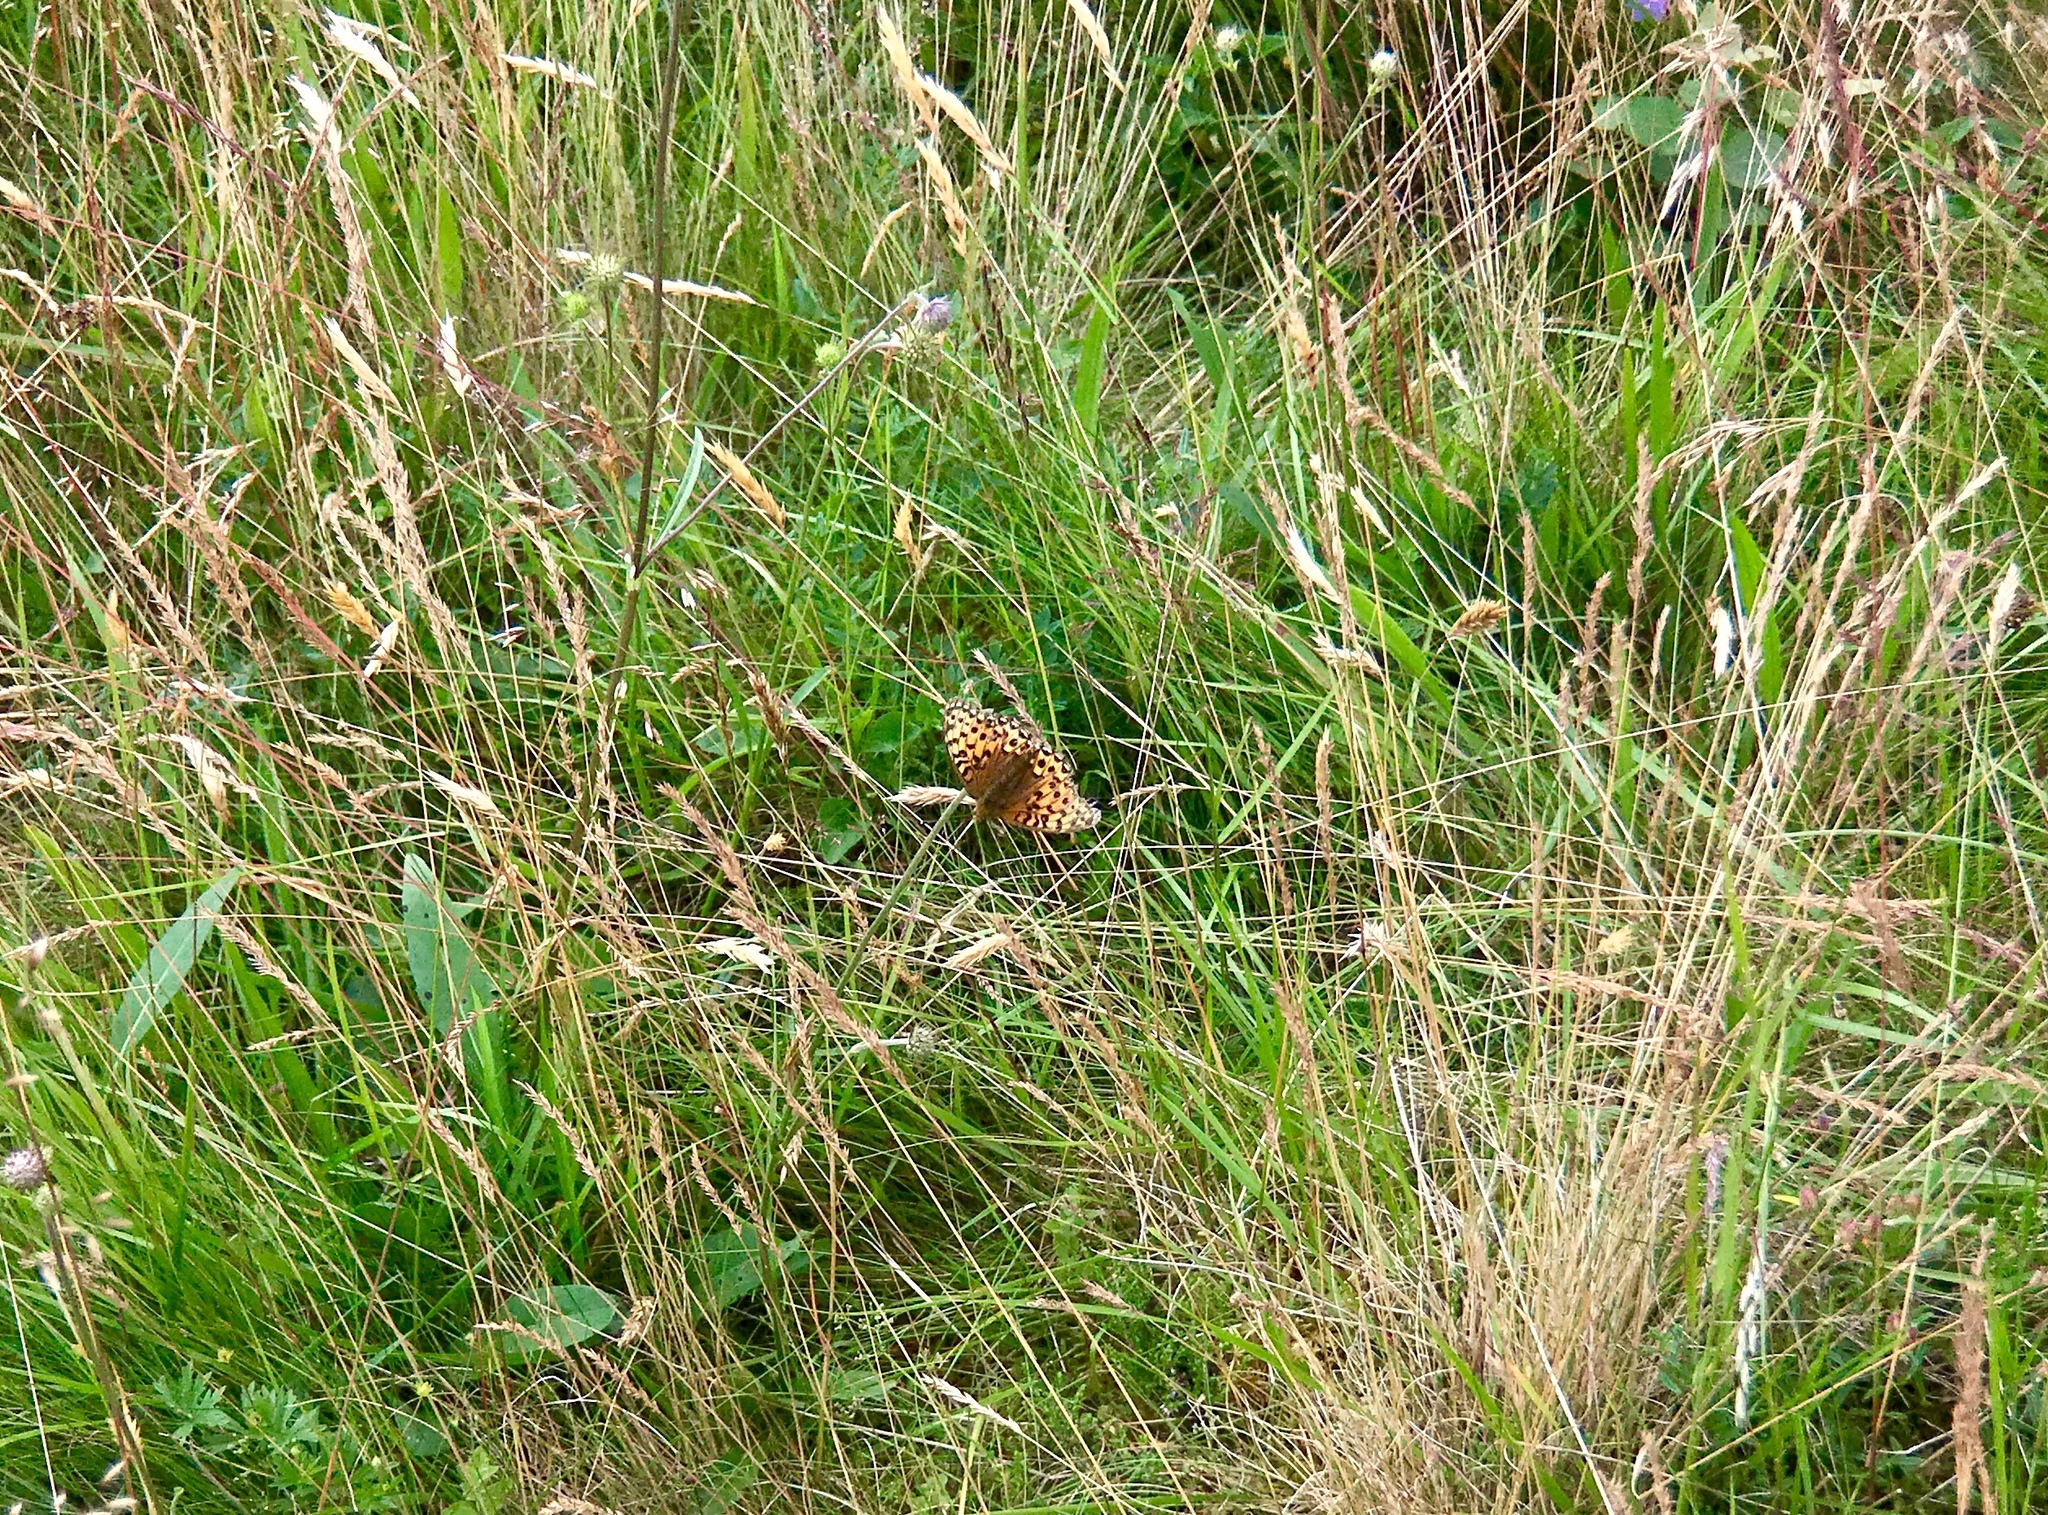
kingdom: Animalia
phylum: Arthropoda
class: Insecta
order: Lepidoptera
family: Nymphalidae
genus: Speyeria
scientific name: Speyeria aglaja
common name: Dark green fritillary
